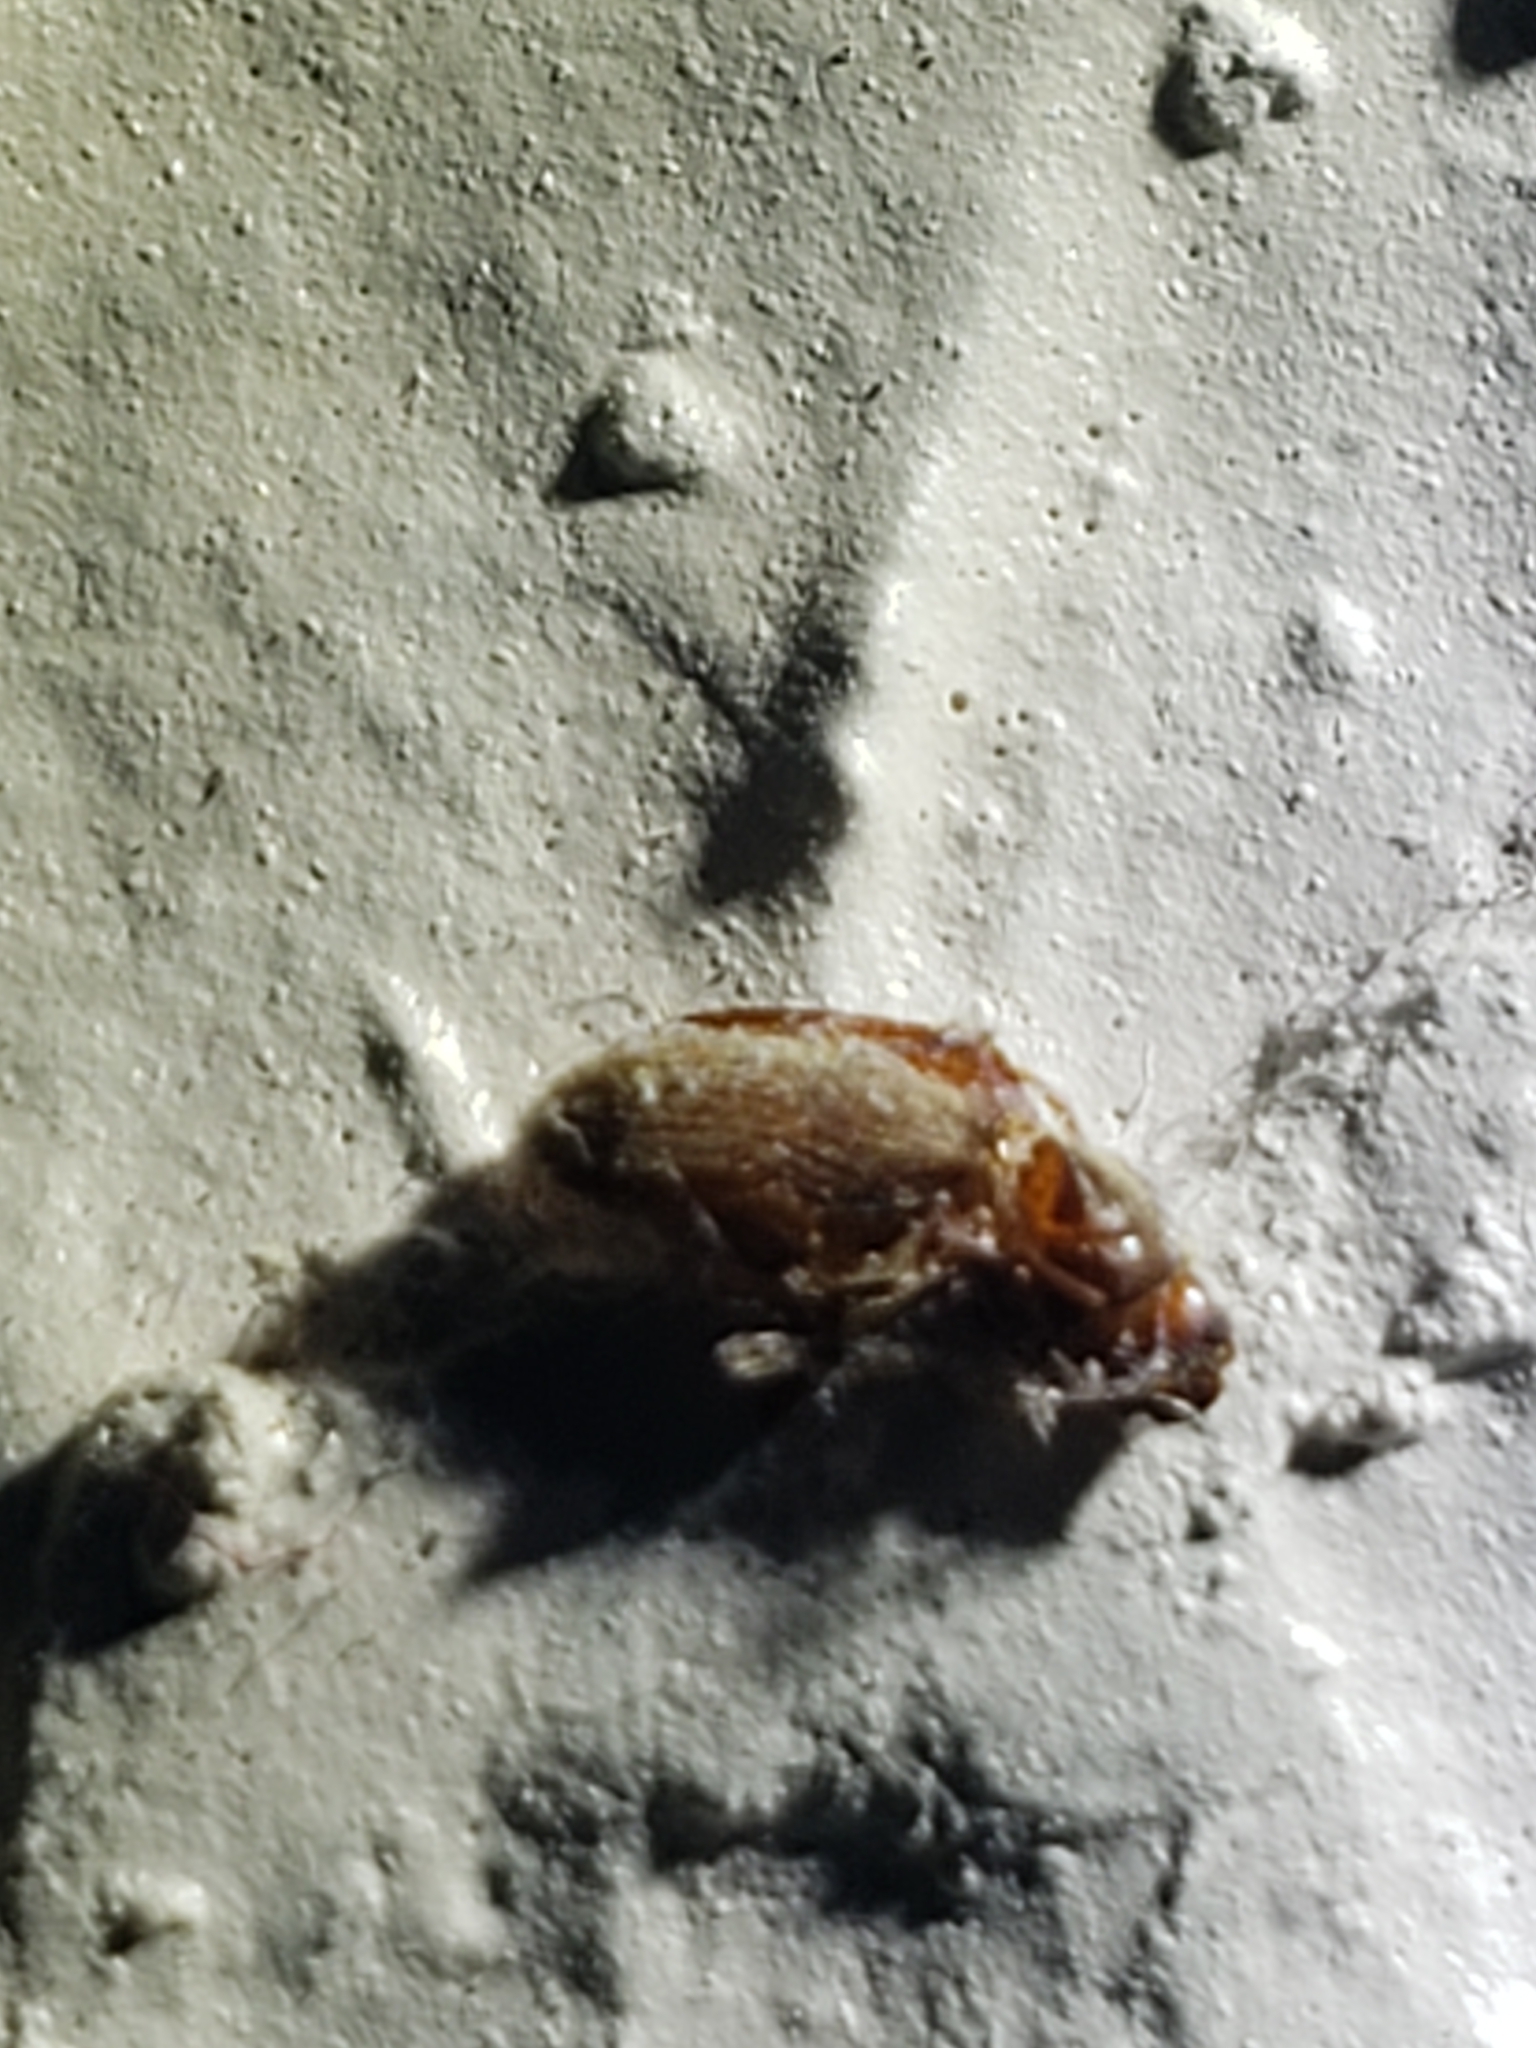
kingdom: Animalia
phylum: Arthropoda
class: Insecta
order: Coleoptera
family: Anobiidae
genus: Stegobium
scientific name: Stegobium paniceum
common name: Drugstore beetle
